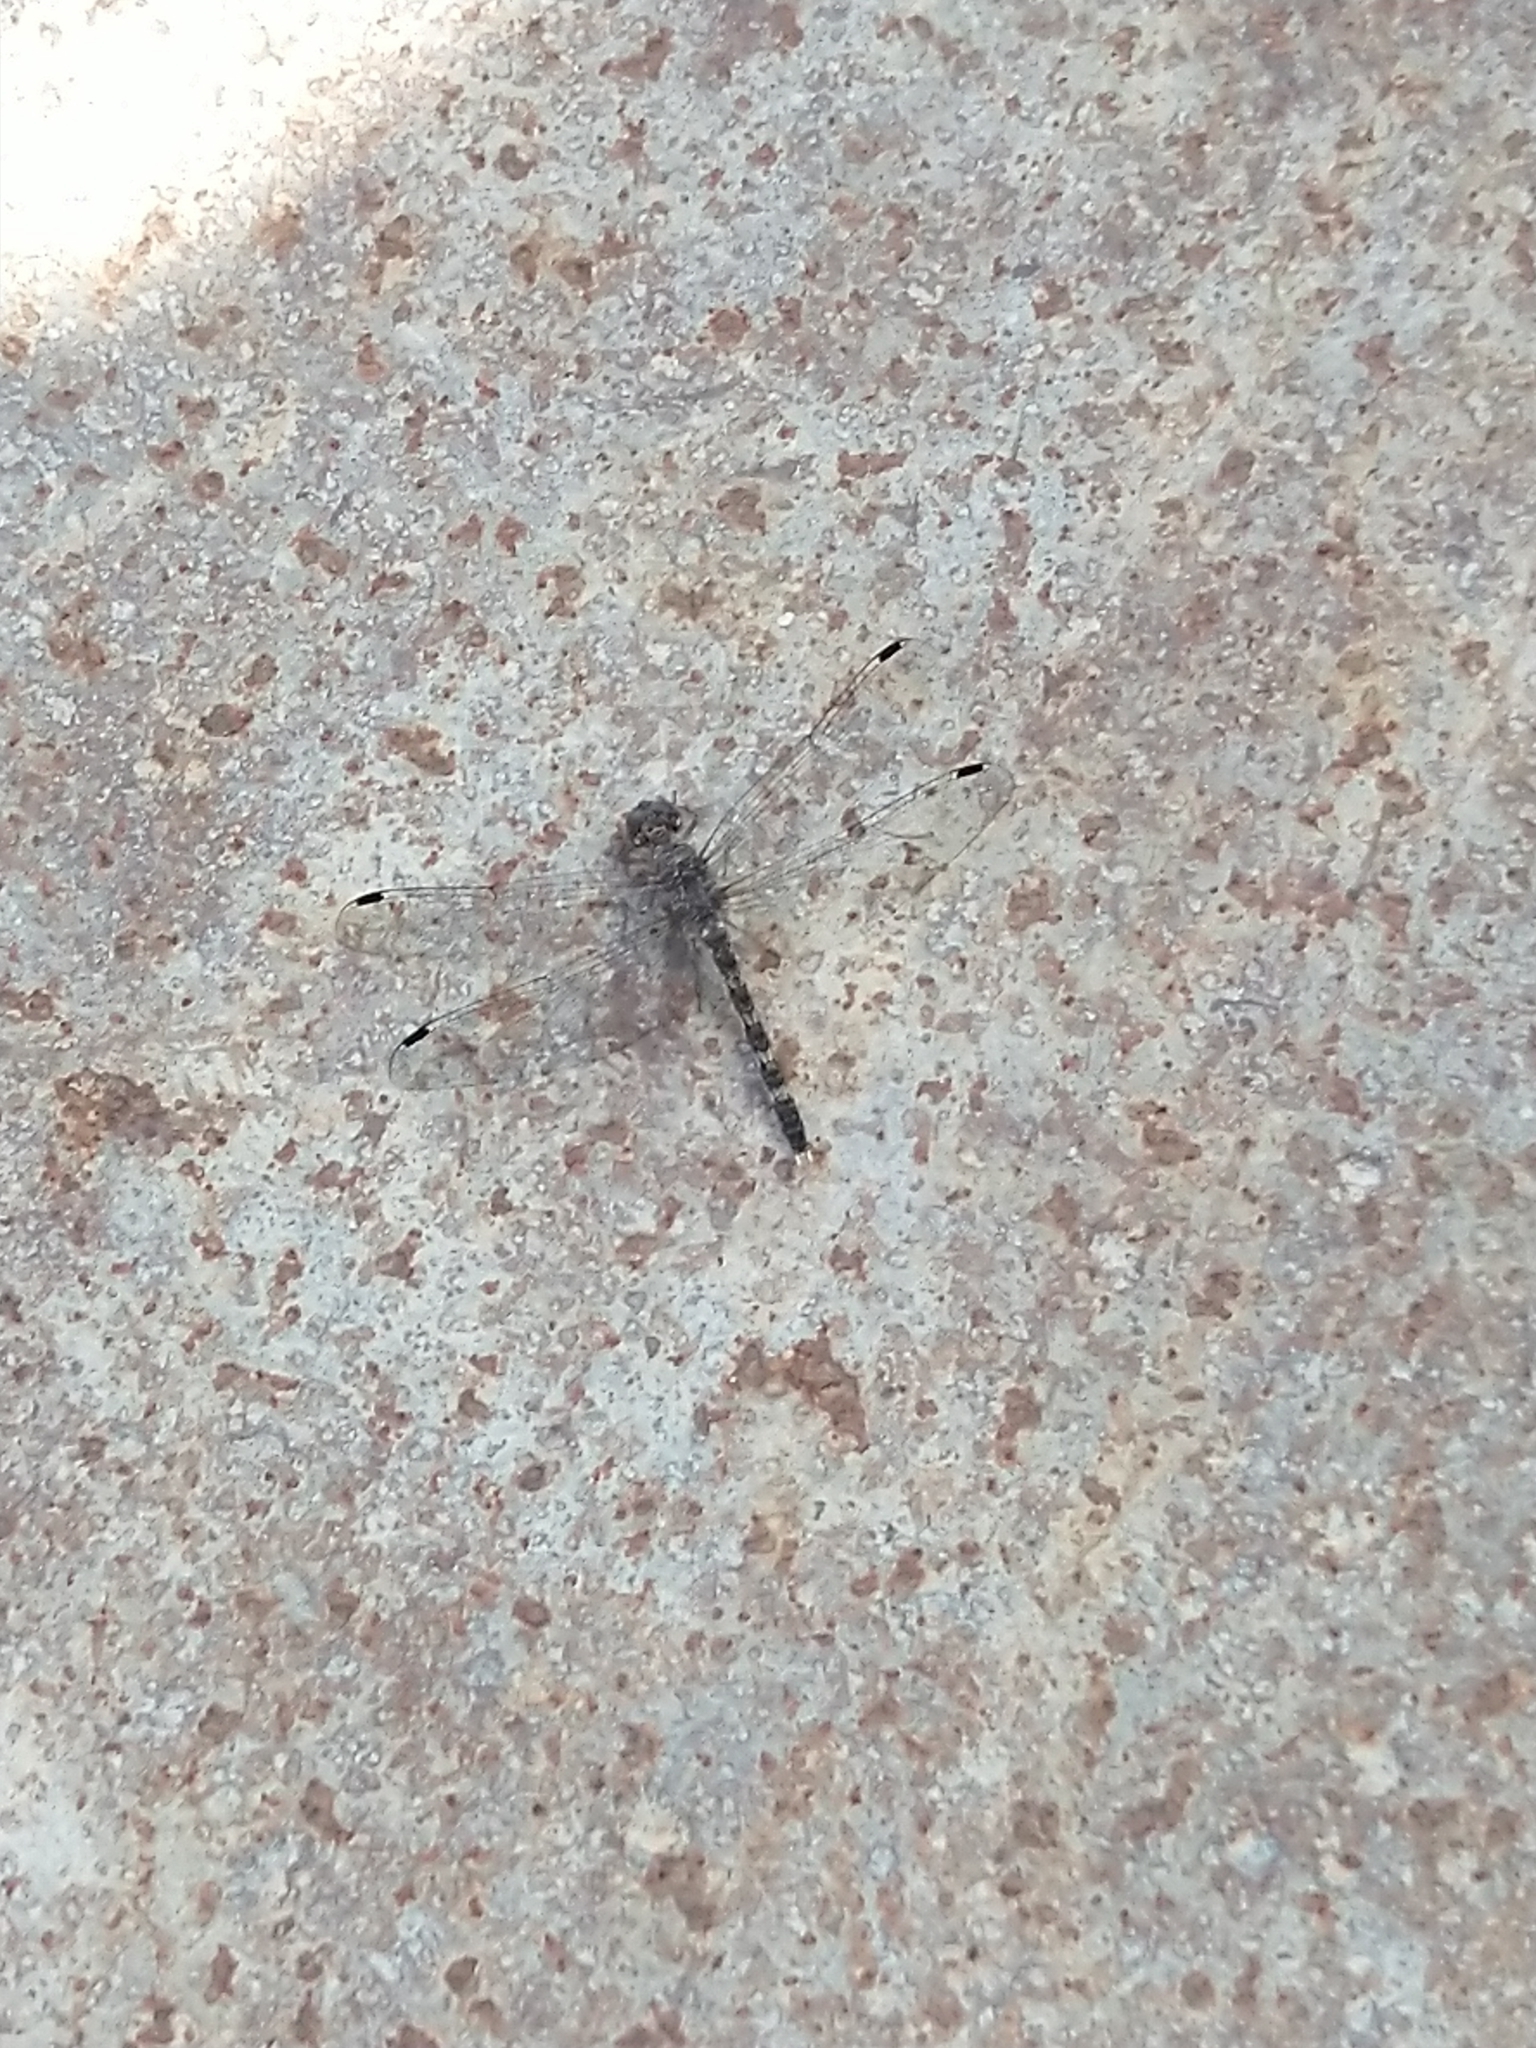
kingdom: Animalia
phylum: Arthropoda
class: Insecta
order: Odonata
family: Libellulidae
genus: Bradinopyga
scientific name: Bradinopyga geminata
